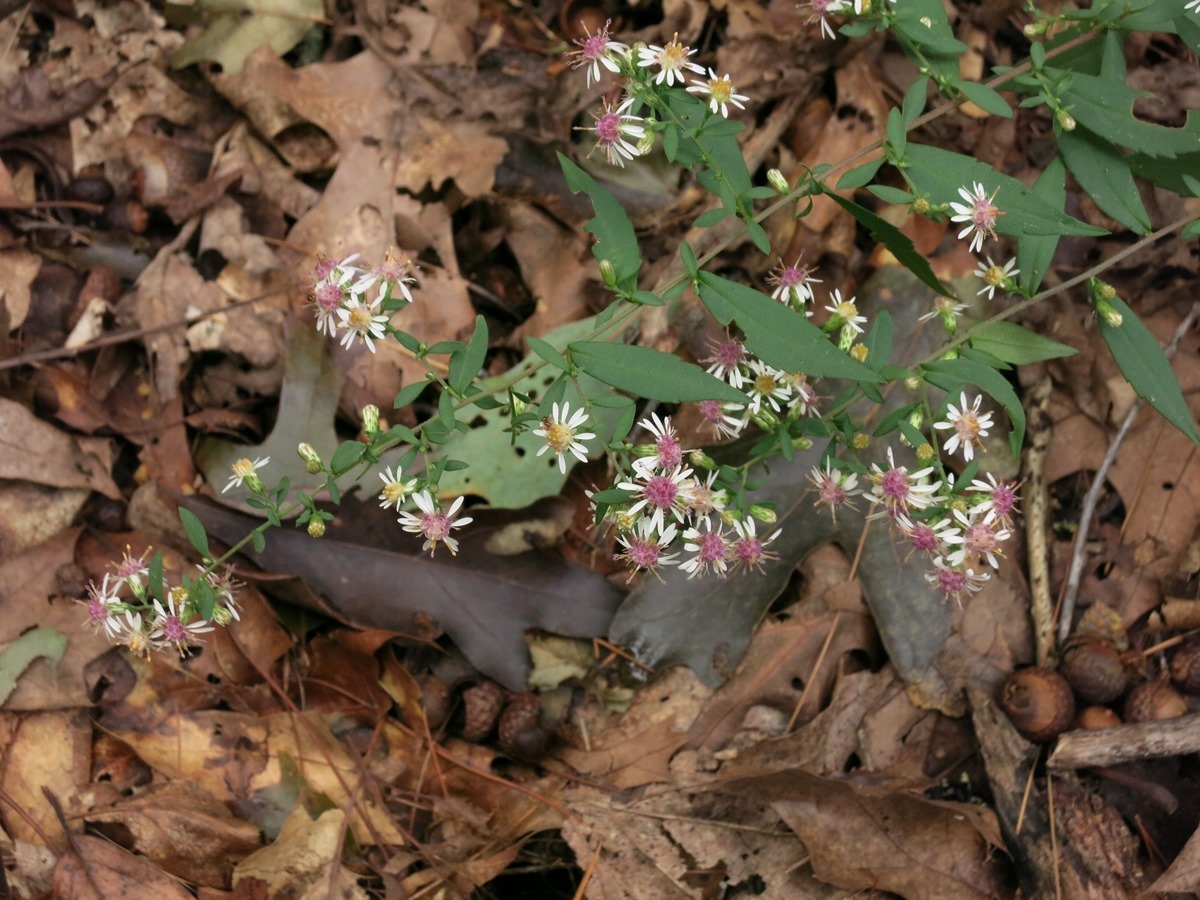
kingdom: Plantae
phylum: Tracheophyta
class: Magnoliopsida
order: Asterales
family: Asteraceae
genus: Symphyotrichum
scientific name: Symphyotrichum lateriflorum
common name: Calico aster
